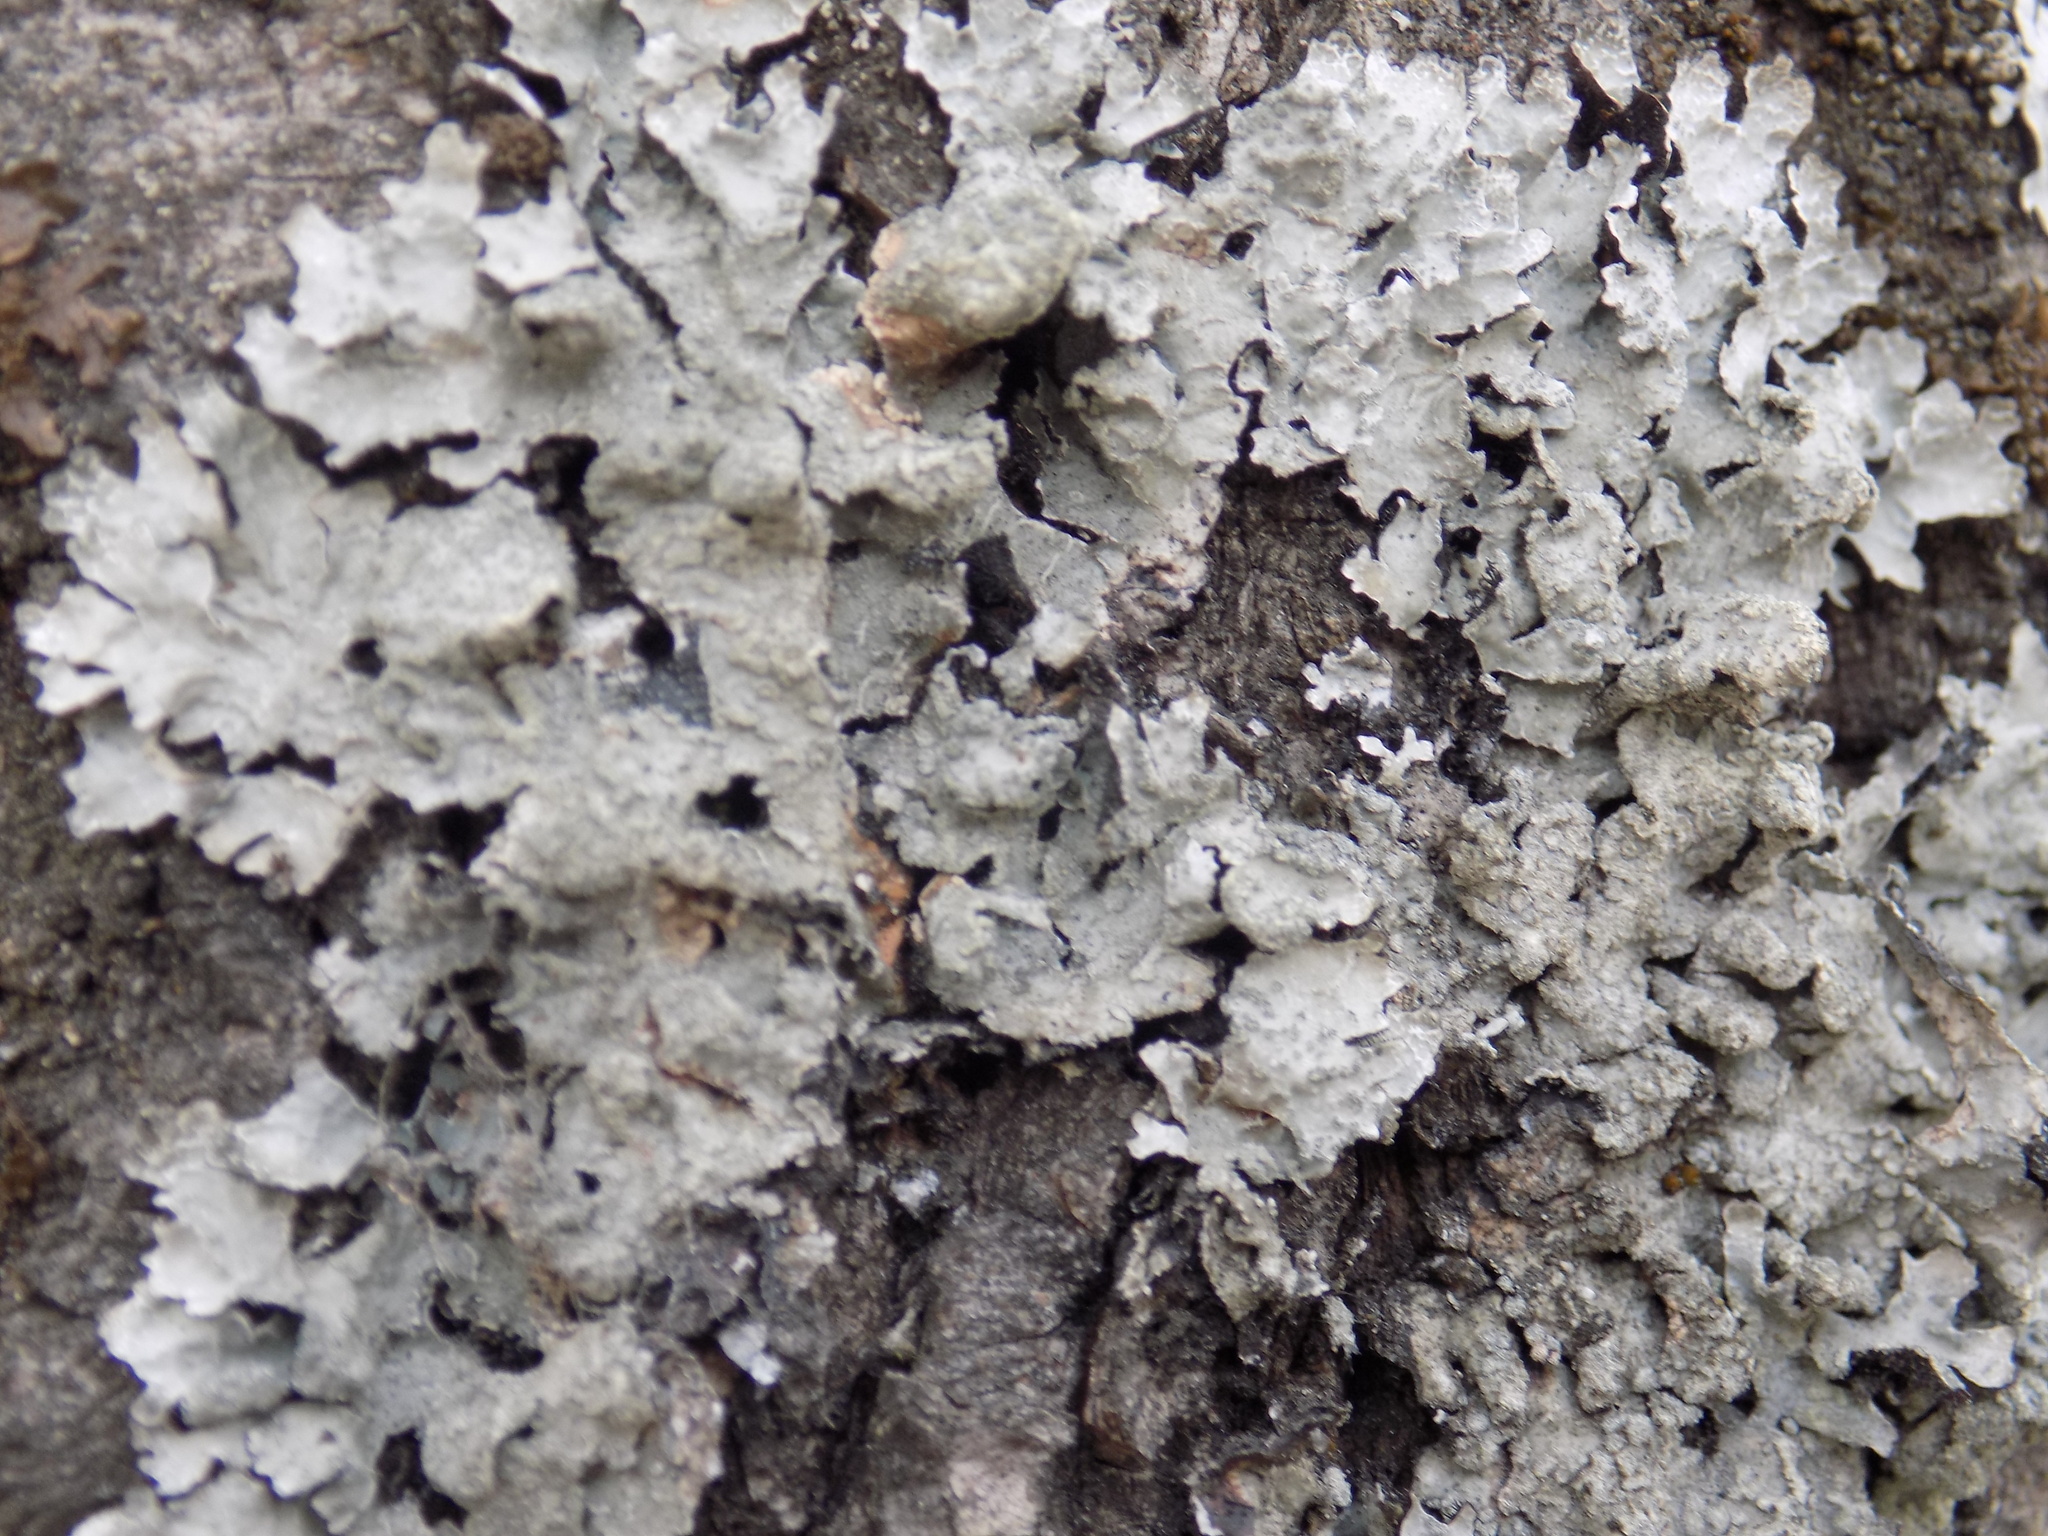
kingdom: Fungi
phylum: Ascomycota
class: Lecanoromycetes
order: Lecanorales
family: Parmeliaceae
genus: Parmelia
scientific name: Parmelia sulcata
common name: Netted shield lichen
